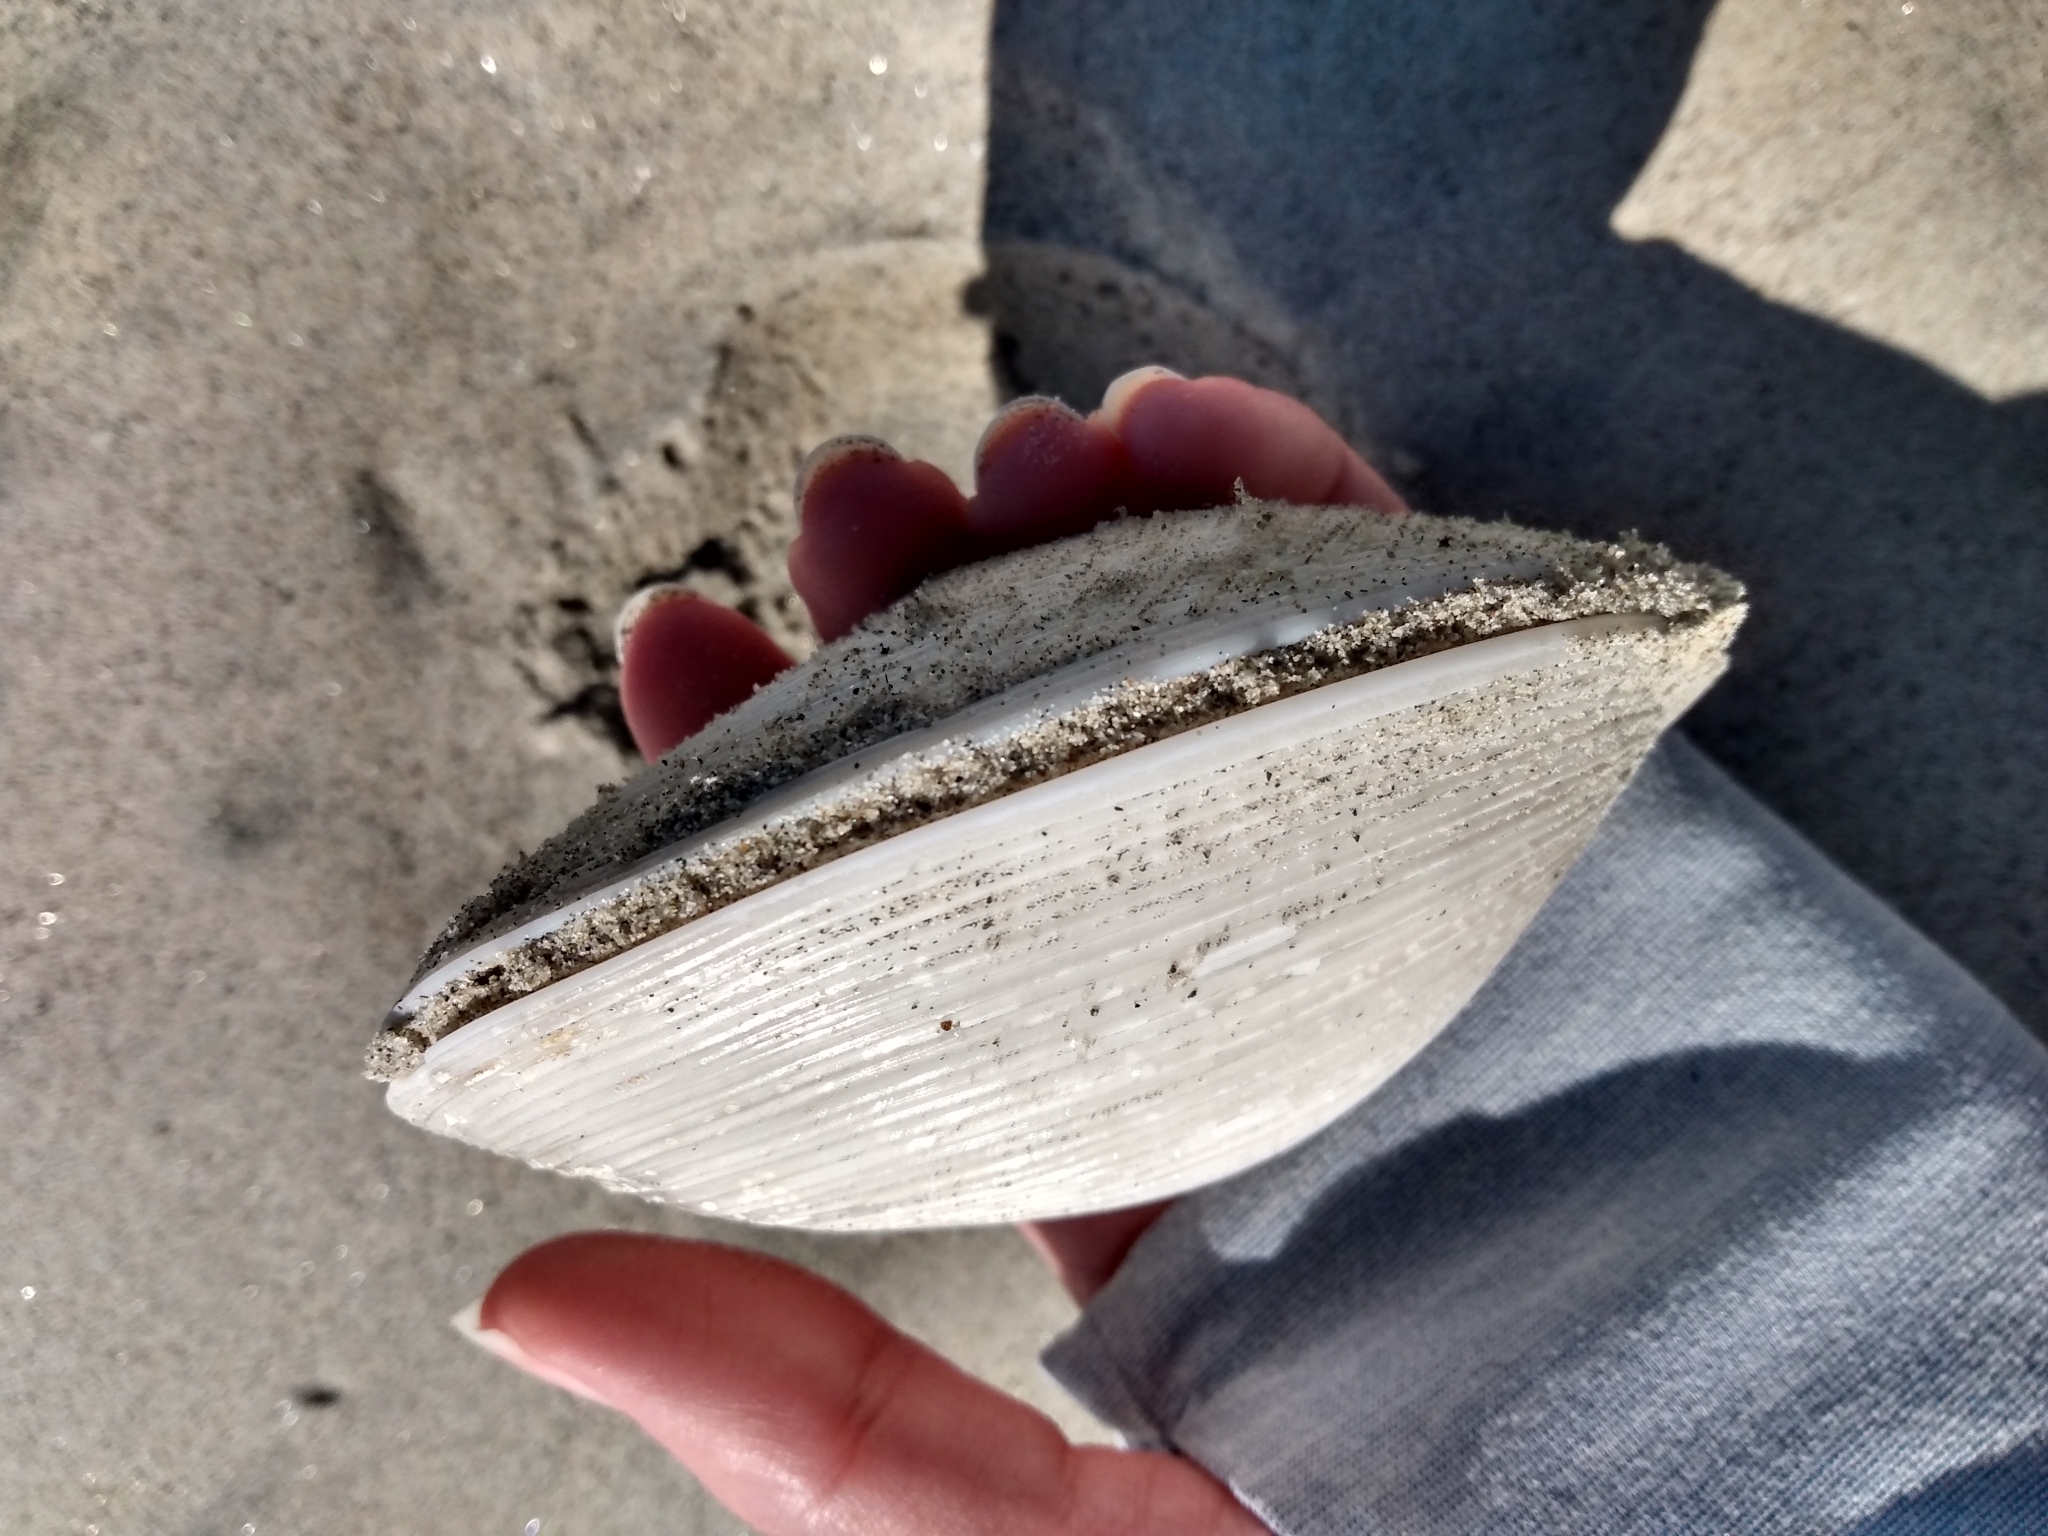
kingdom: Animalia
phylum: Mollusca
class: Bivalvia
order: Venerida
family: Veneridae
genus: Amiantis
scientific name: Amiantis callosa
